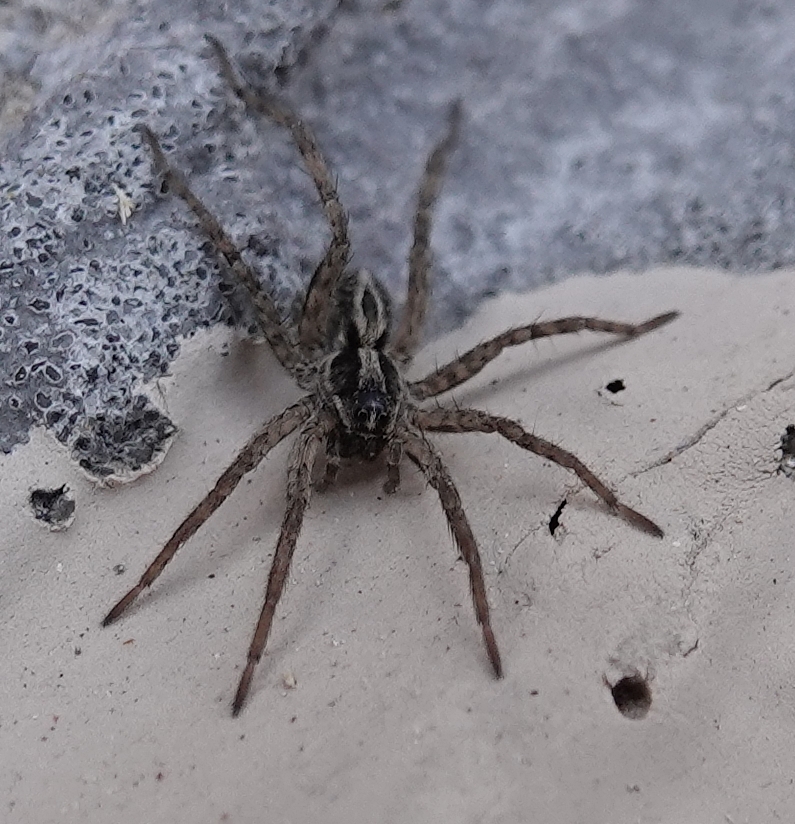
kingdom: Animalia
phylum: Arthropoda
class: Arachnida
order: Araneae
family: Lycosidae
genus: Schizocosa
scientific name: Schizocosa mccooki
